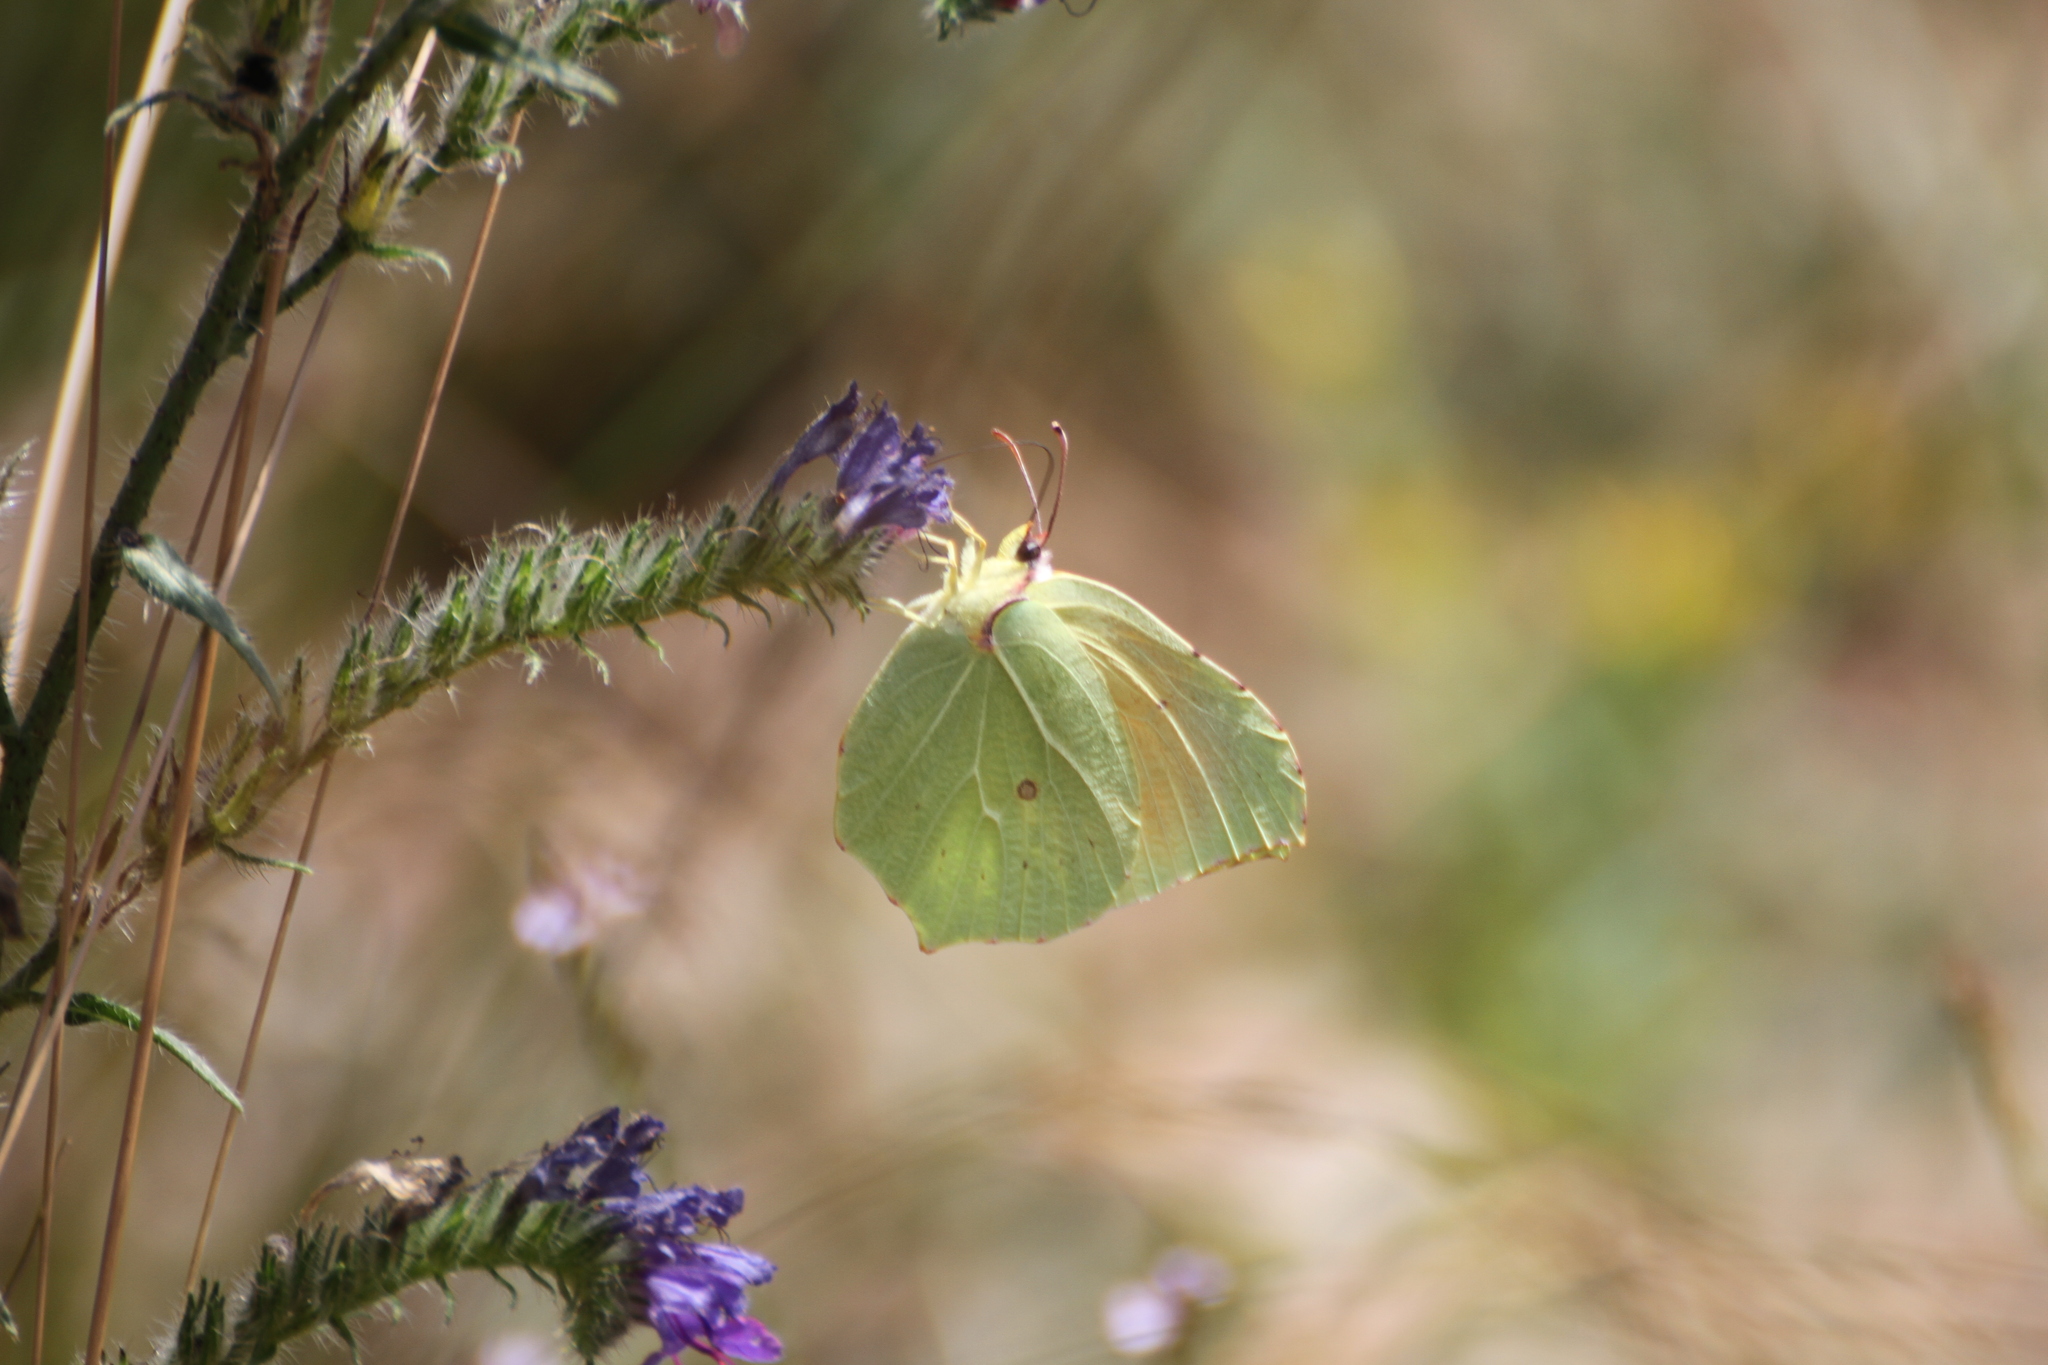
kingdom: Animalia
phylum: Arthropoda
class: Insecta
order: Lepidoptera
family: Pieridae
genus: Gonepteryx
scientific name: Gonepteryx cleopatra
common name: Cleopatra
